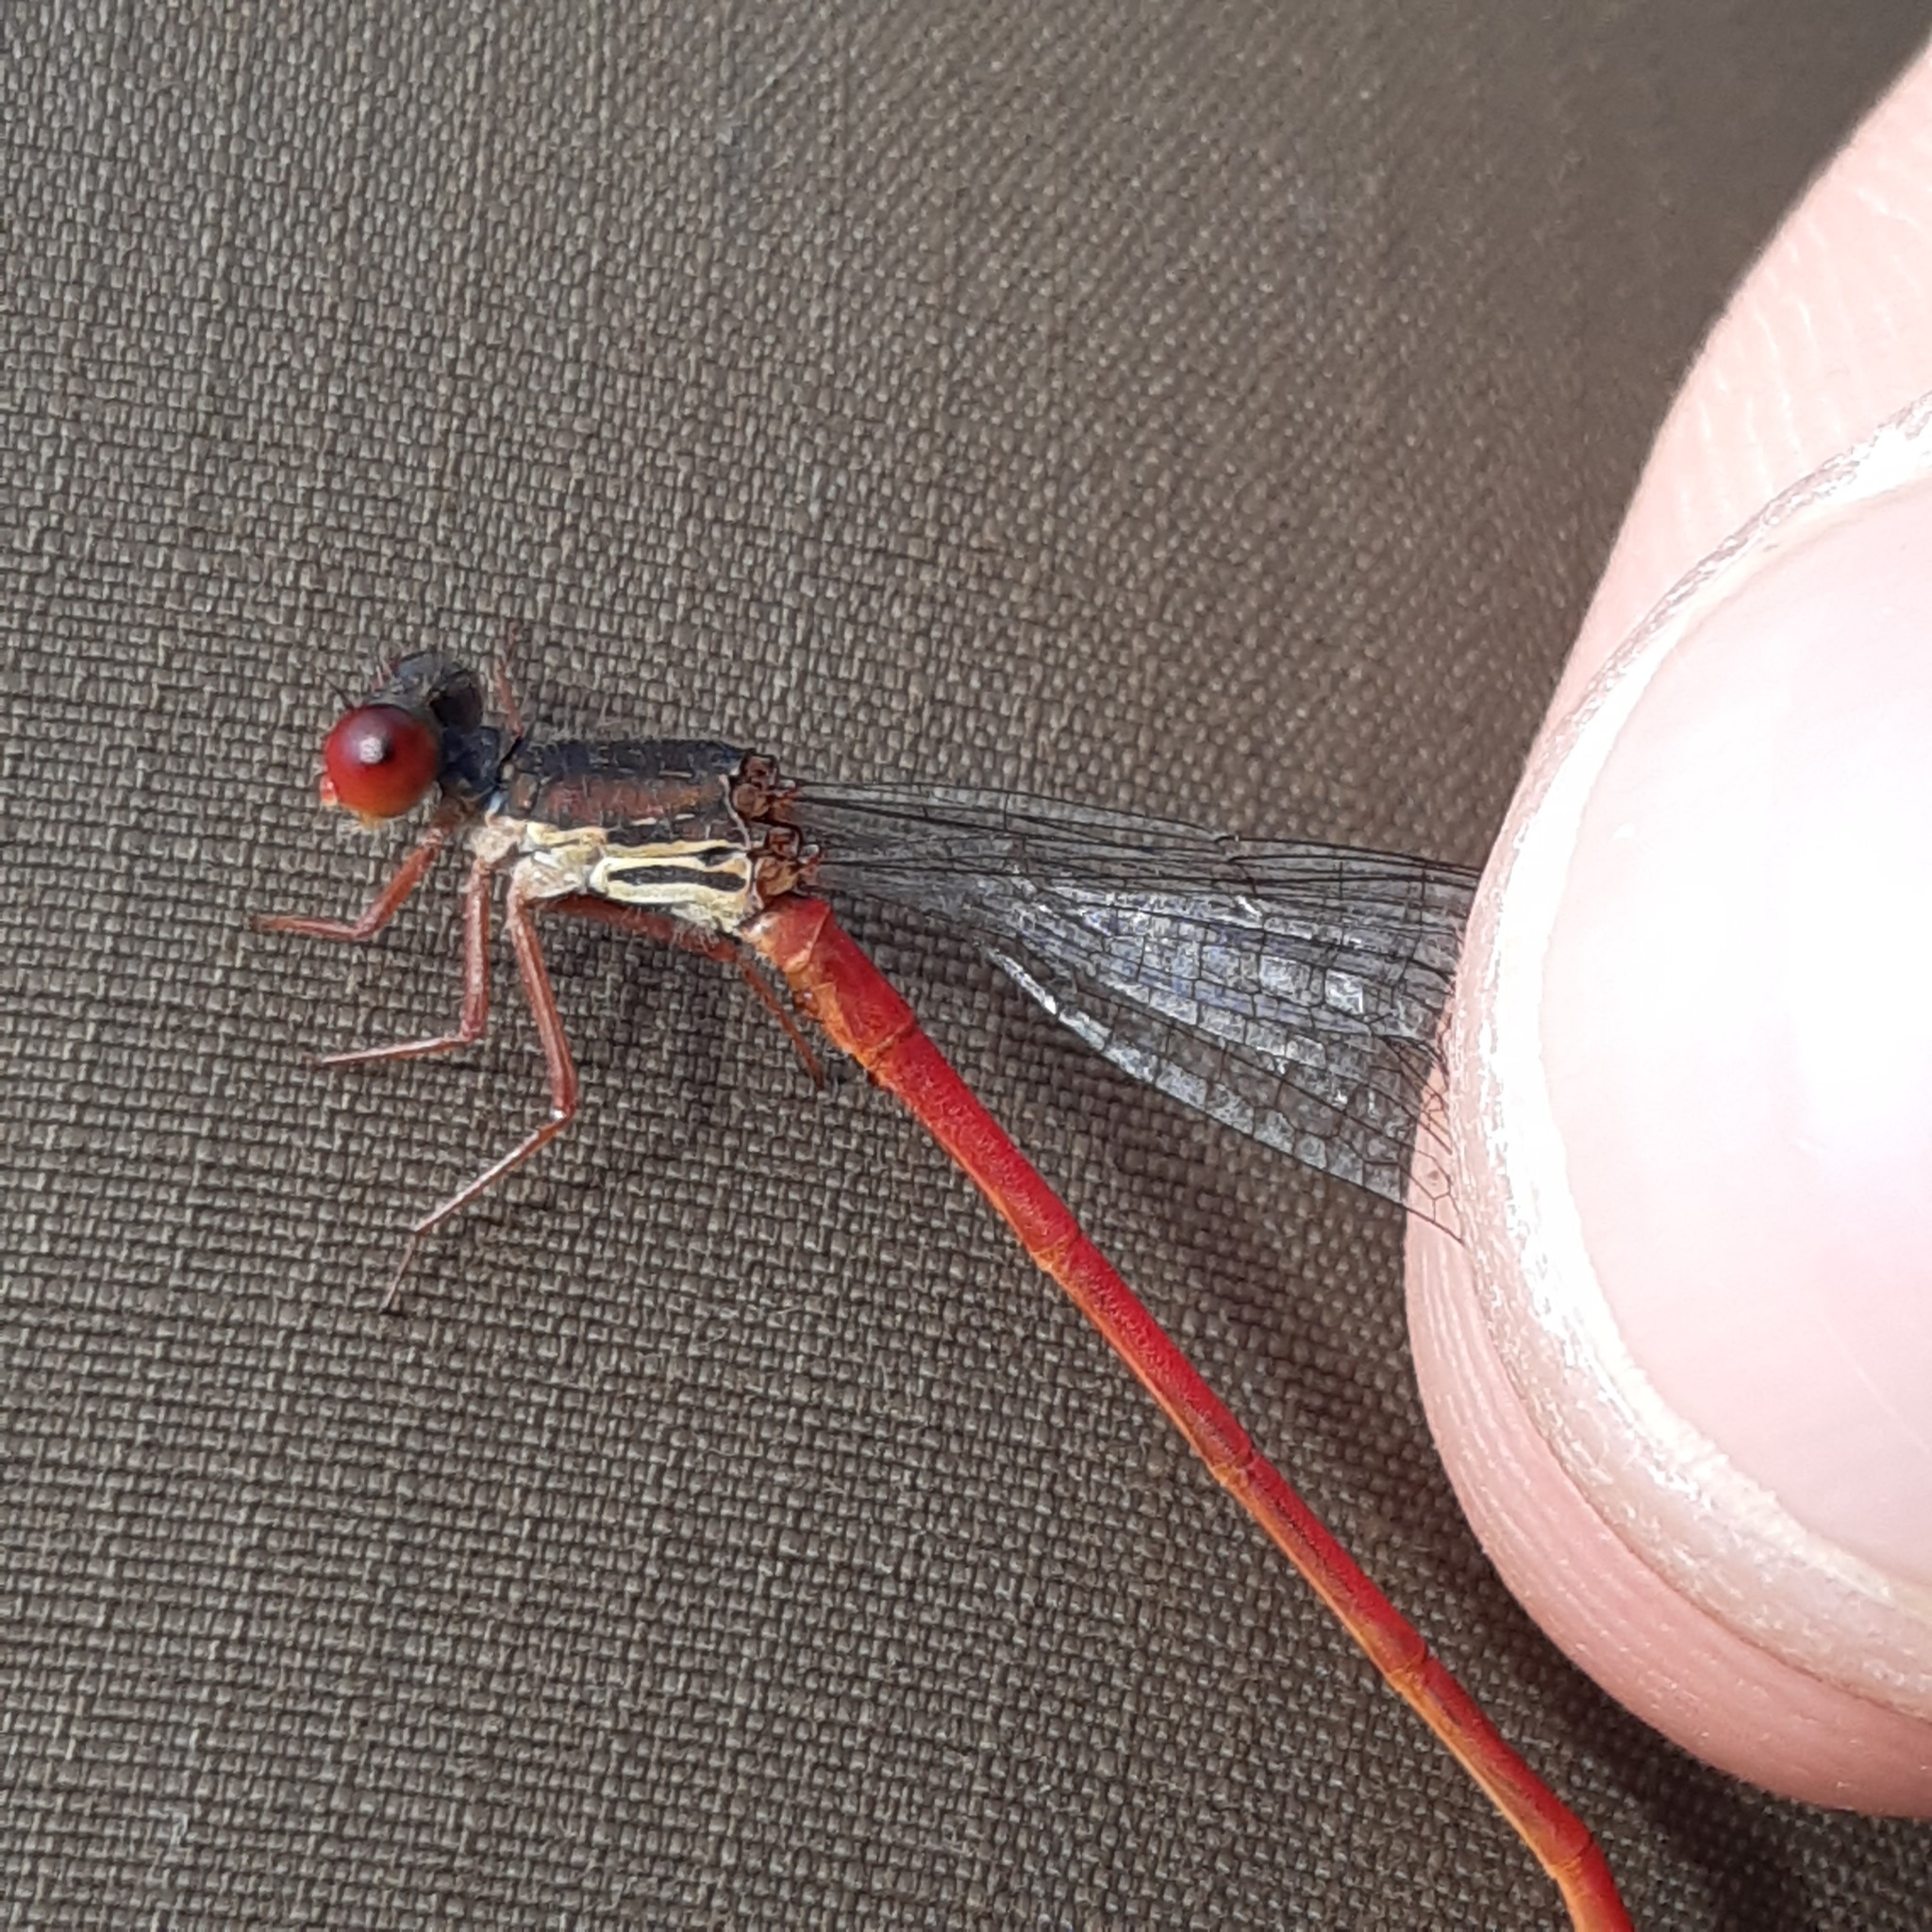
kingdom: Animalia
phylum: Arthropoda
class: Insecta
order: Odonata
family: Coenagrionidae
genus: Ceriagrion
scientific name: Ceriagrion tenellum
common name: Small red damselfly
